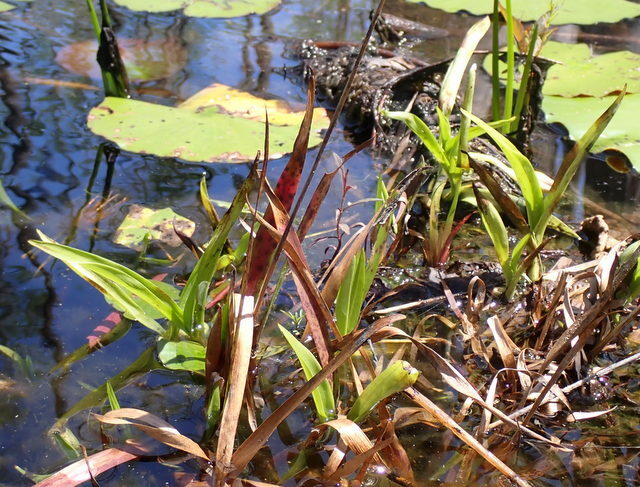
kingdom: Plantae
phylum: Tracheophyta
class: Liliopsida
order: Asparagales
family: Orchidaceae
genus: Habenaria
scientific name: Habenaria repens
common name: Water orchid
